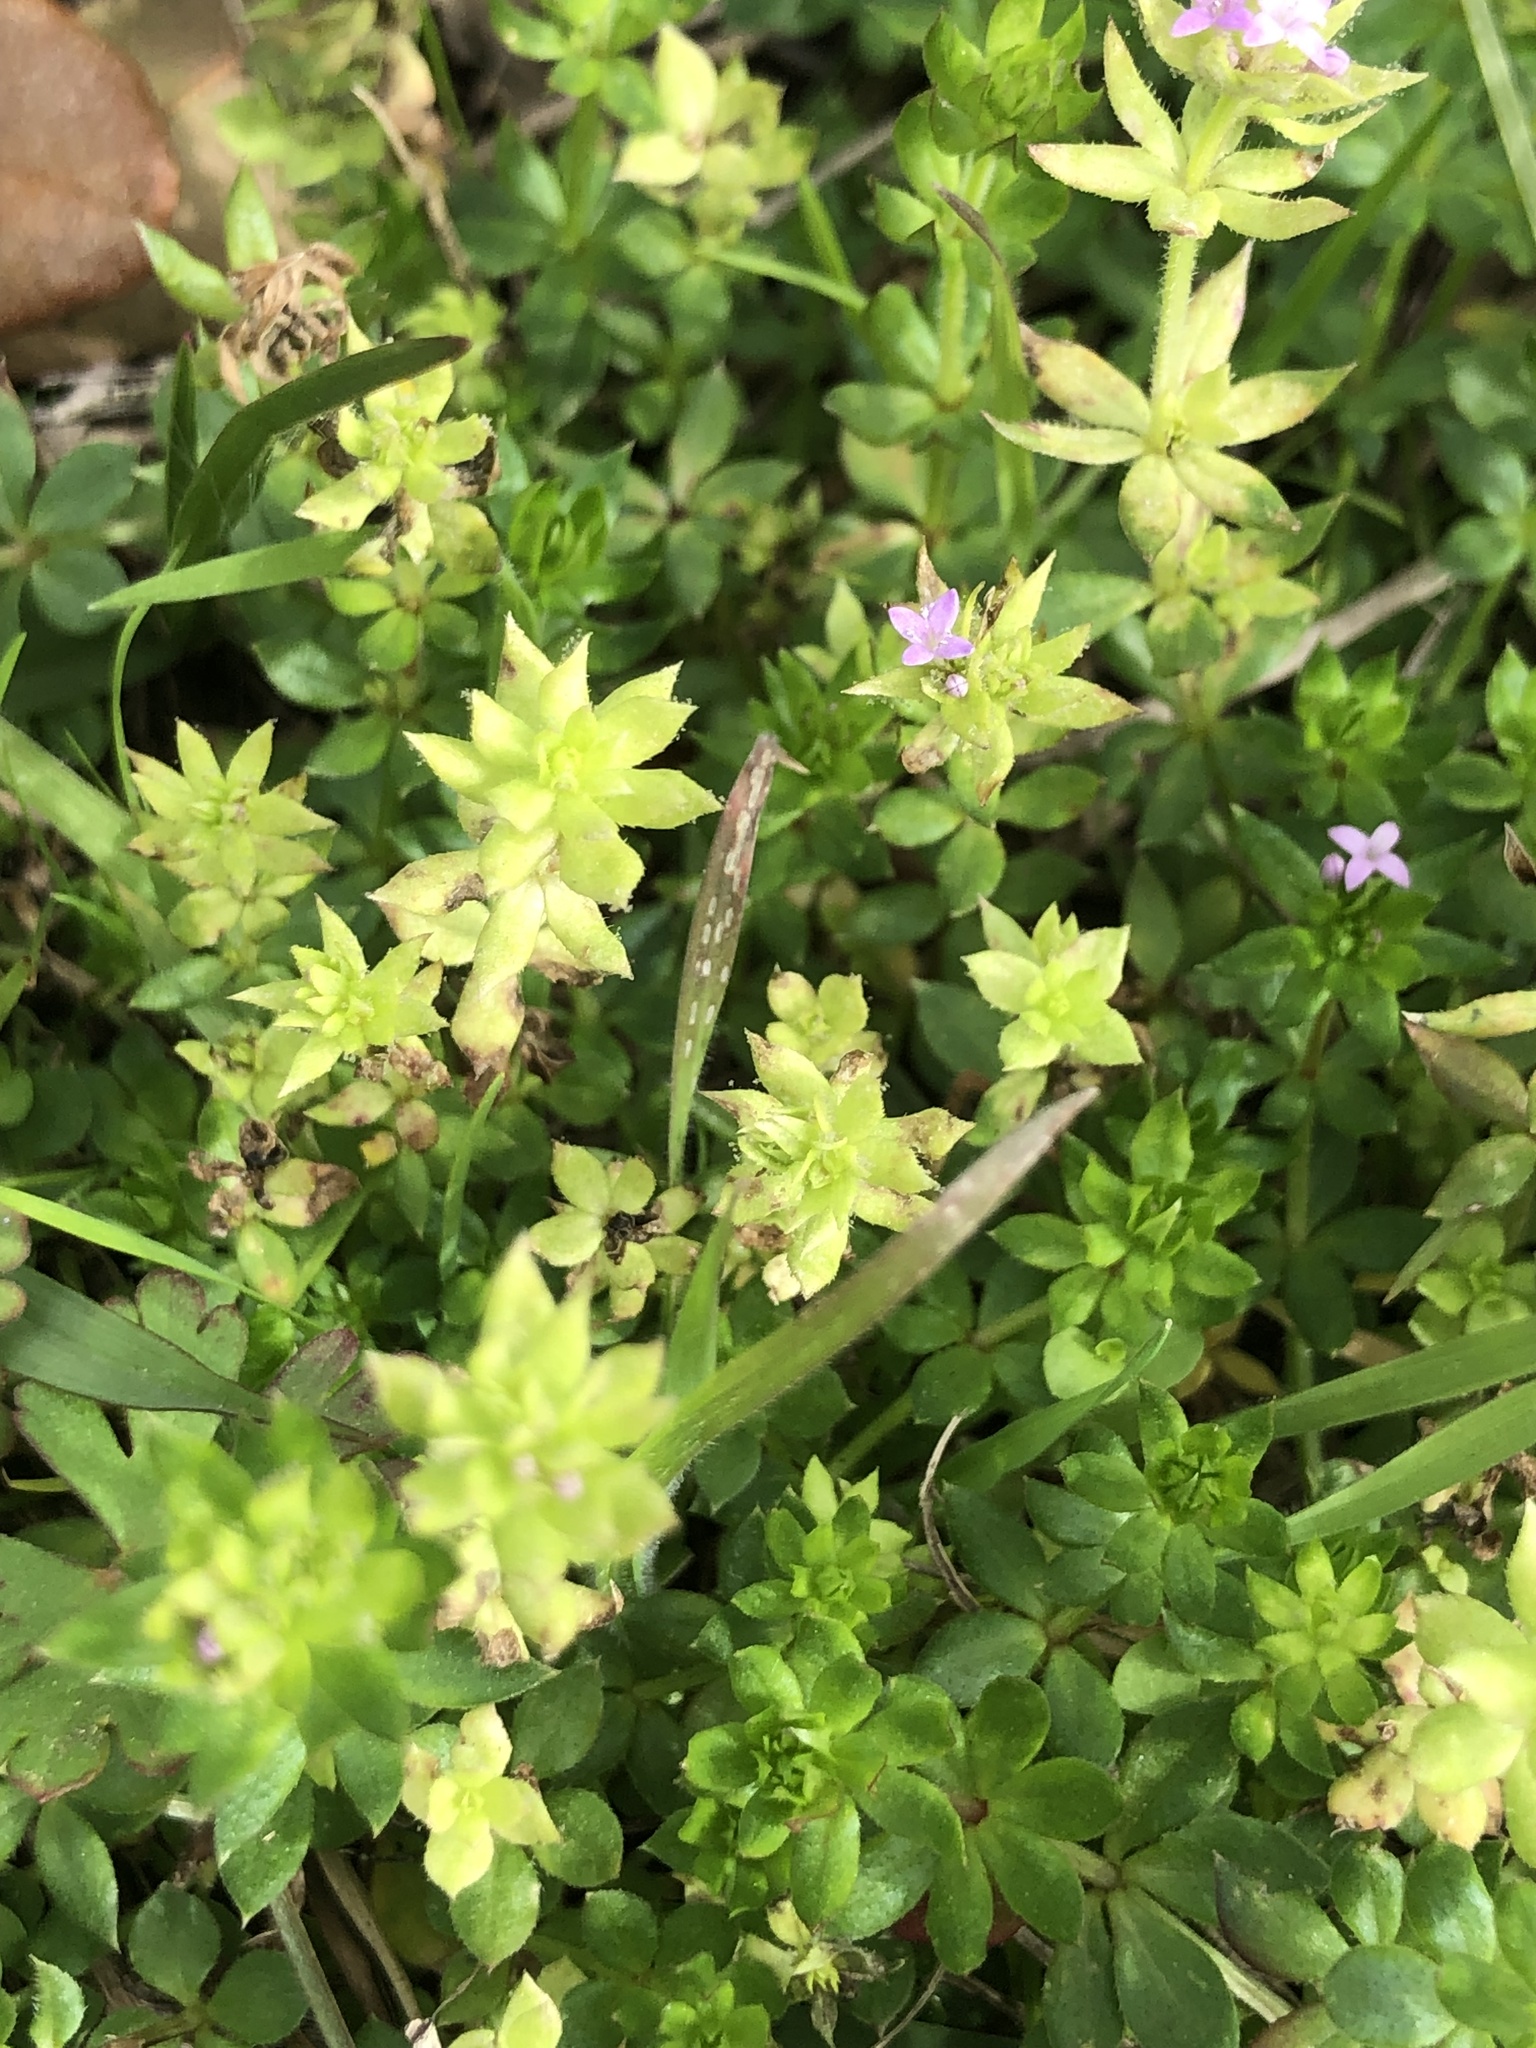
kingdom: Plantae
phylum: Tracheophyta
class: Magnoliopsida
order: Gentianales
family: Rubiaceae
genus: Sherardia
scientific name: Sherardia arvensis
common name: Field madder
